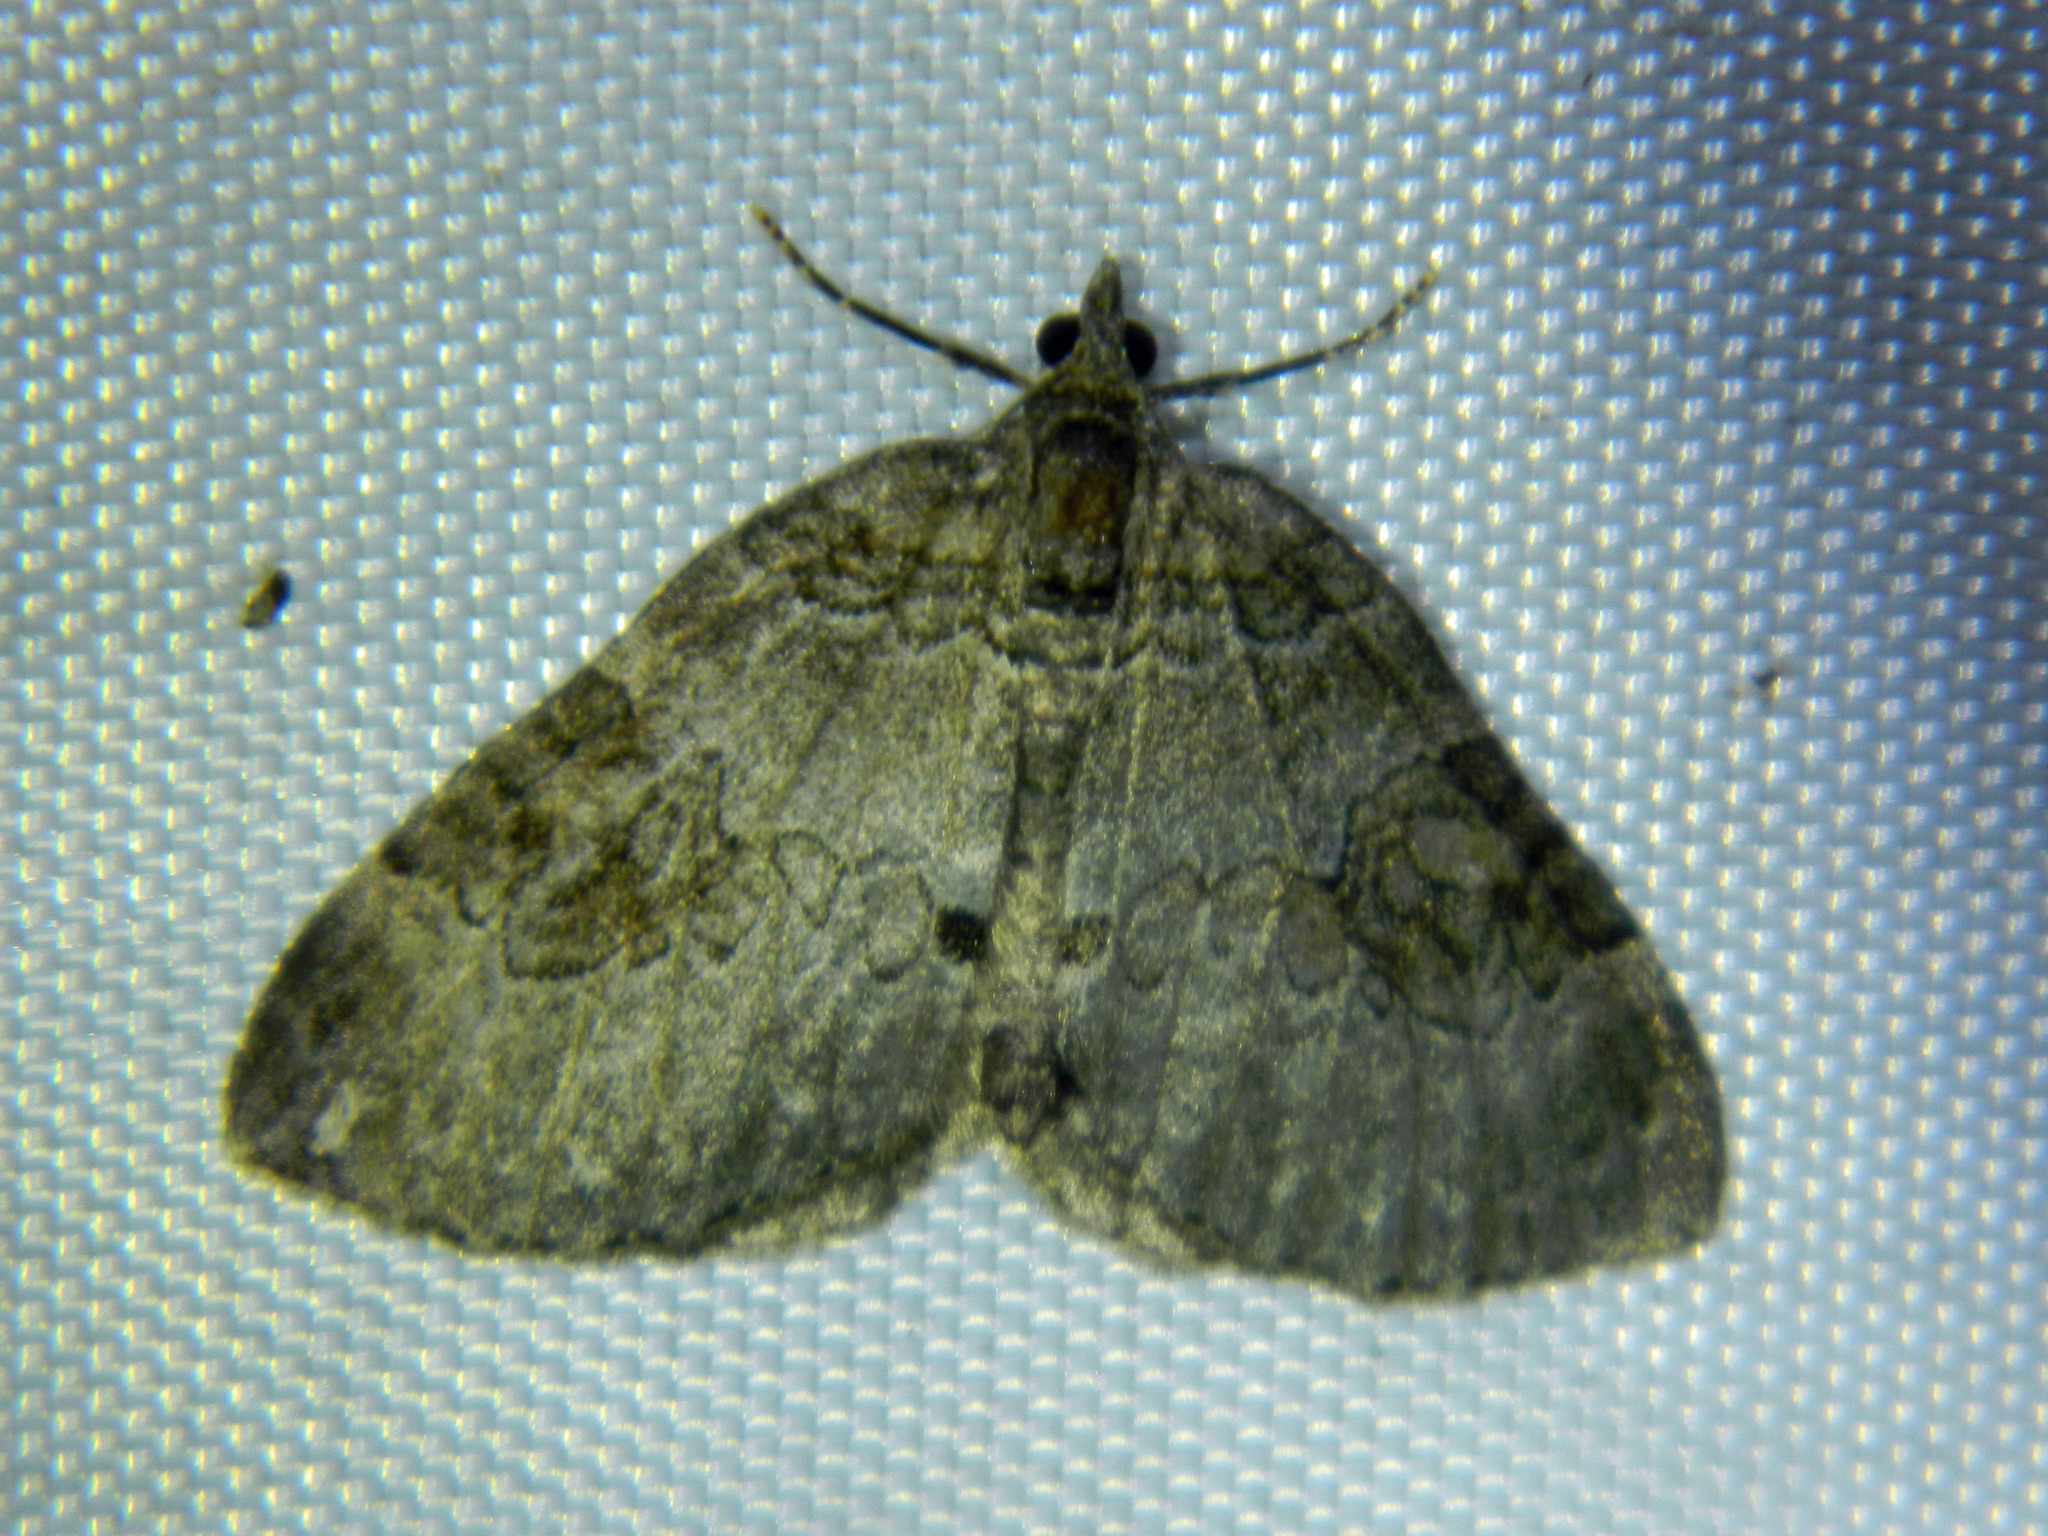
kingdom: Animalia
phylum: Arthropoda
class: Insecta
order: Lepidoptera
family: Geometridae
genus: Plemyria
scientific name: Plemyria georgii
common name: George's carpet moth
